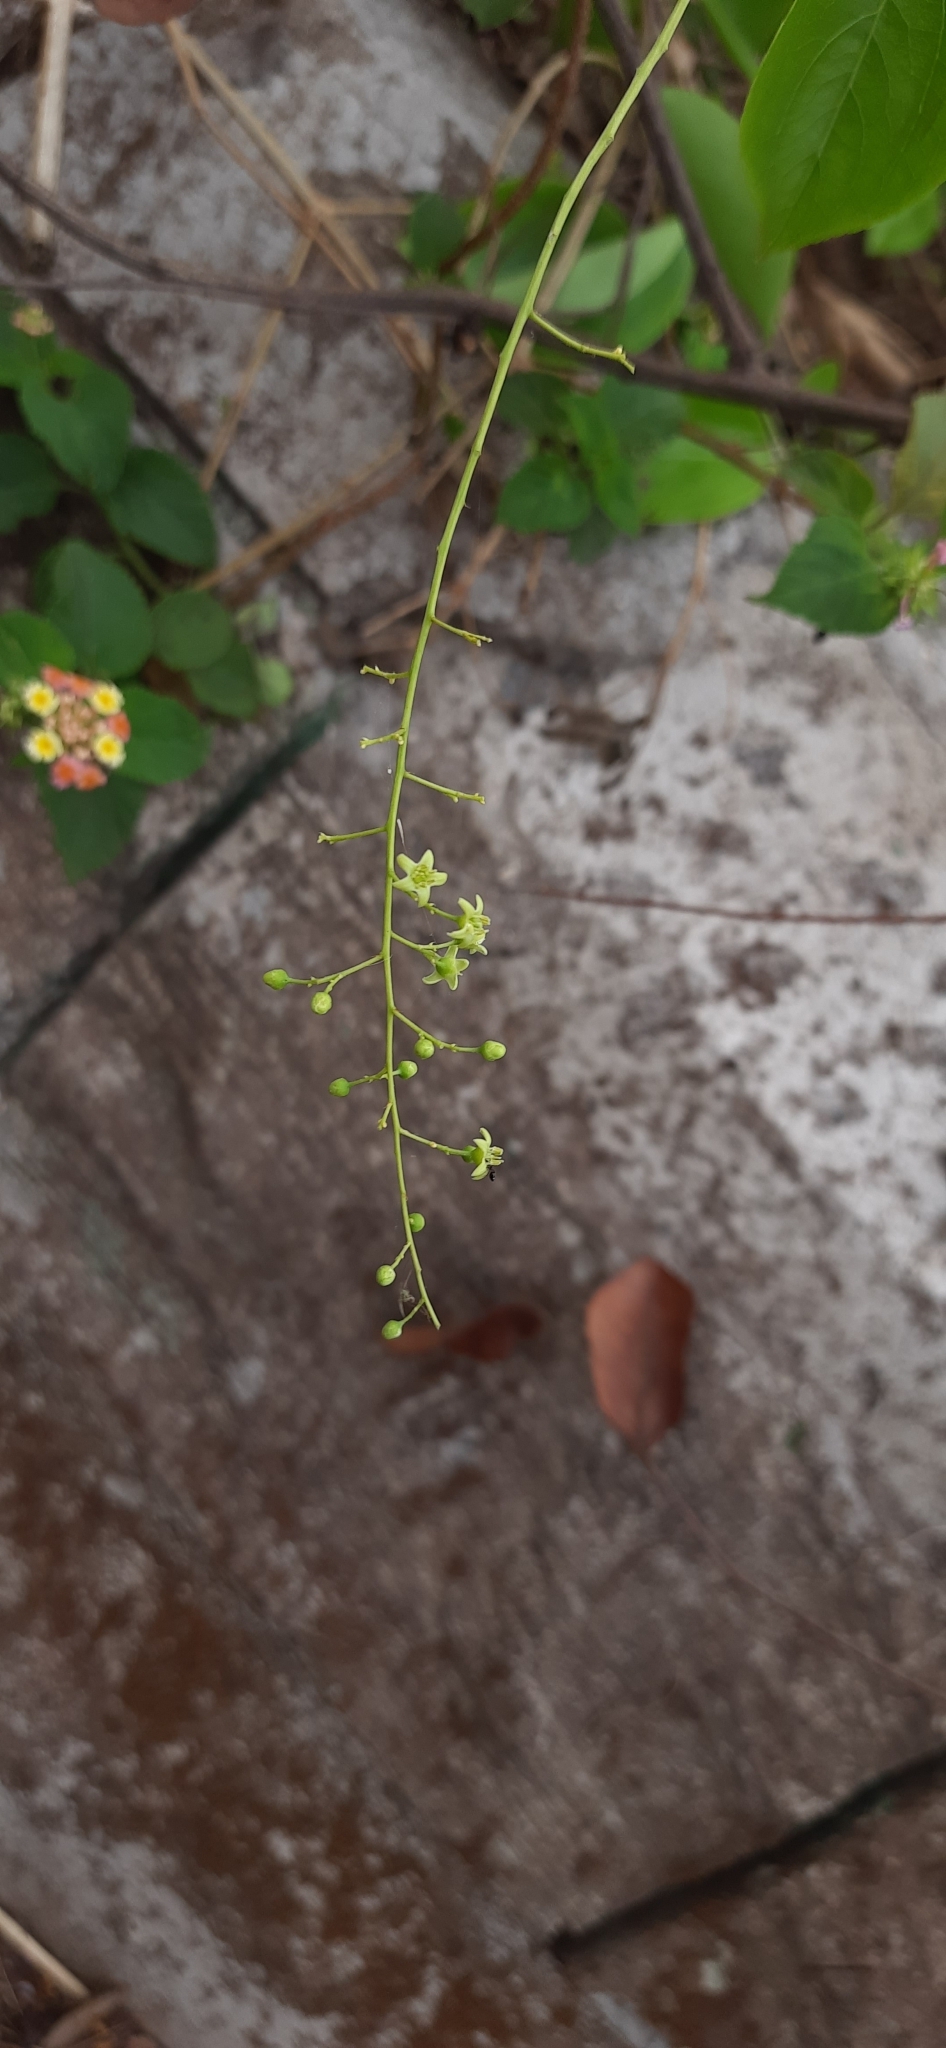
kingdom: Plantae
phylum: Tracheophyta
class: Magnoliopsida
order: Celastrales
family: Celastraceae
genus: Celastrus
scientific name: Celastrus paniculatus
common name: Oriental bittersweet; staff vine
